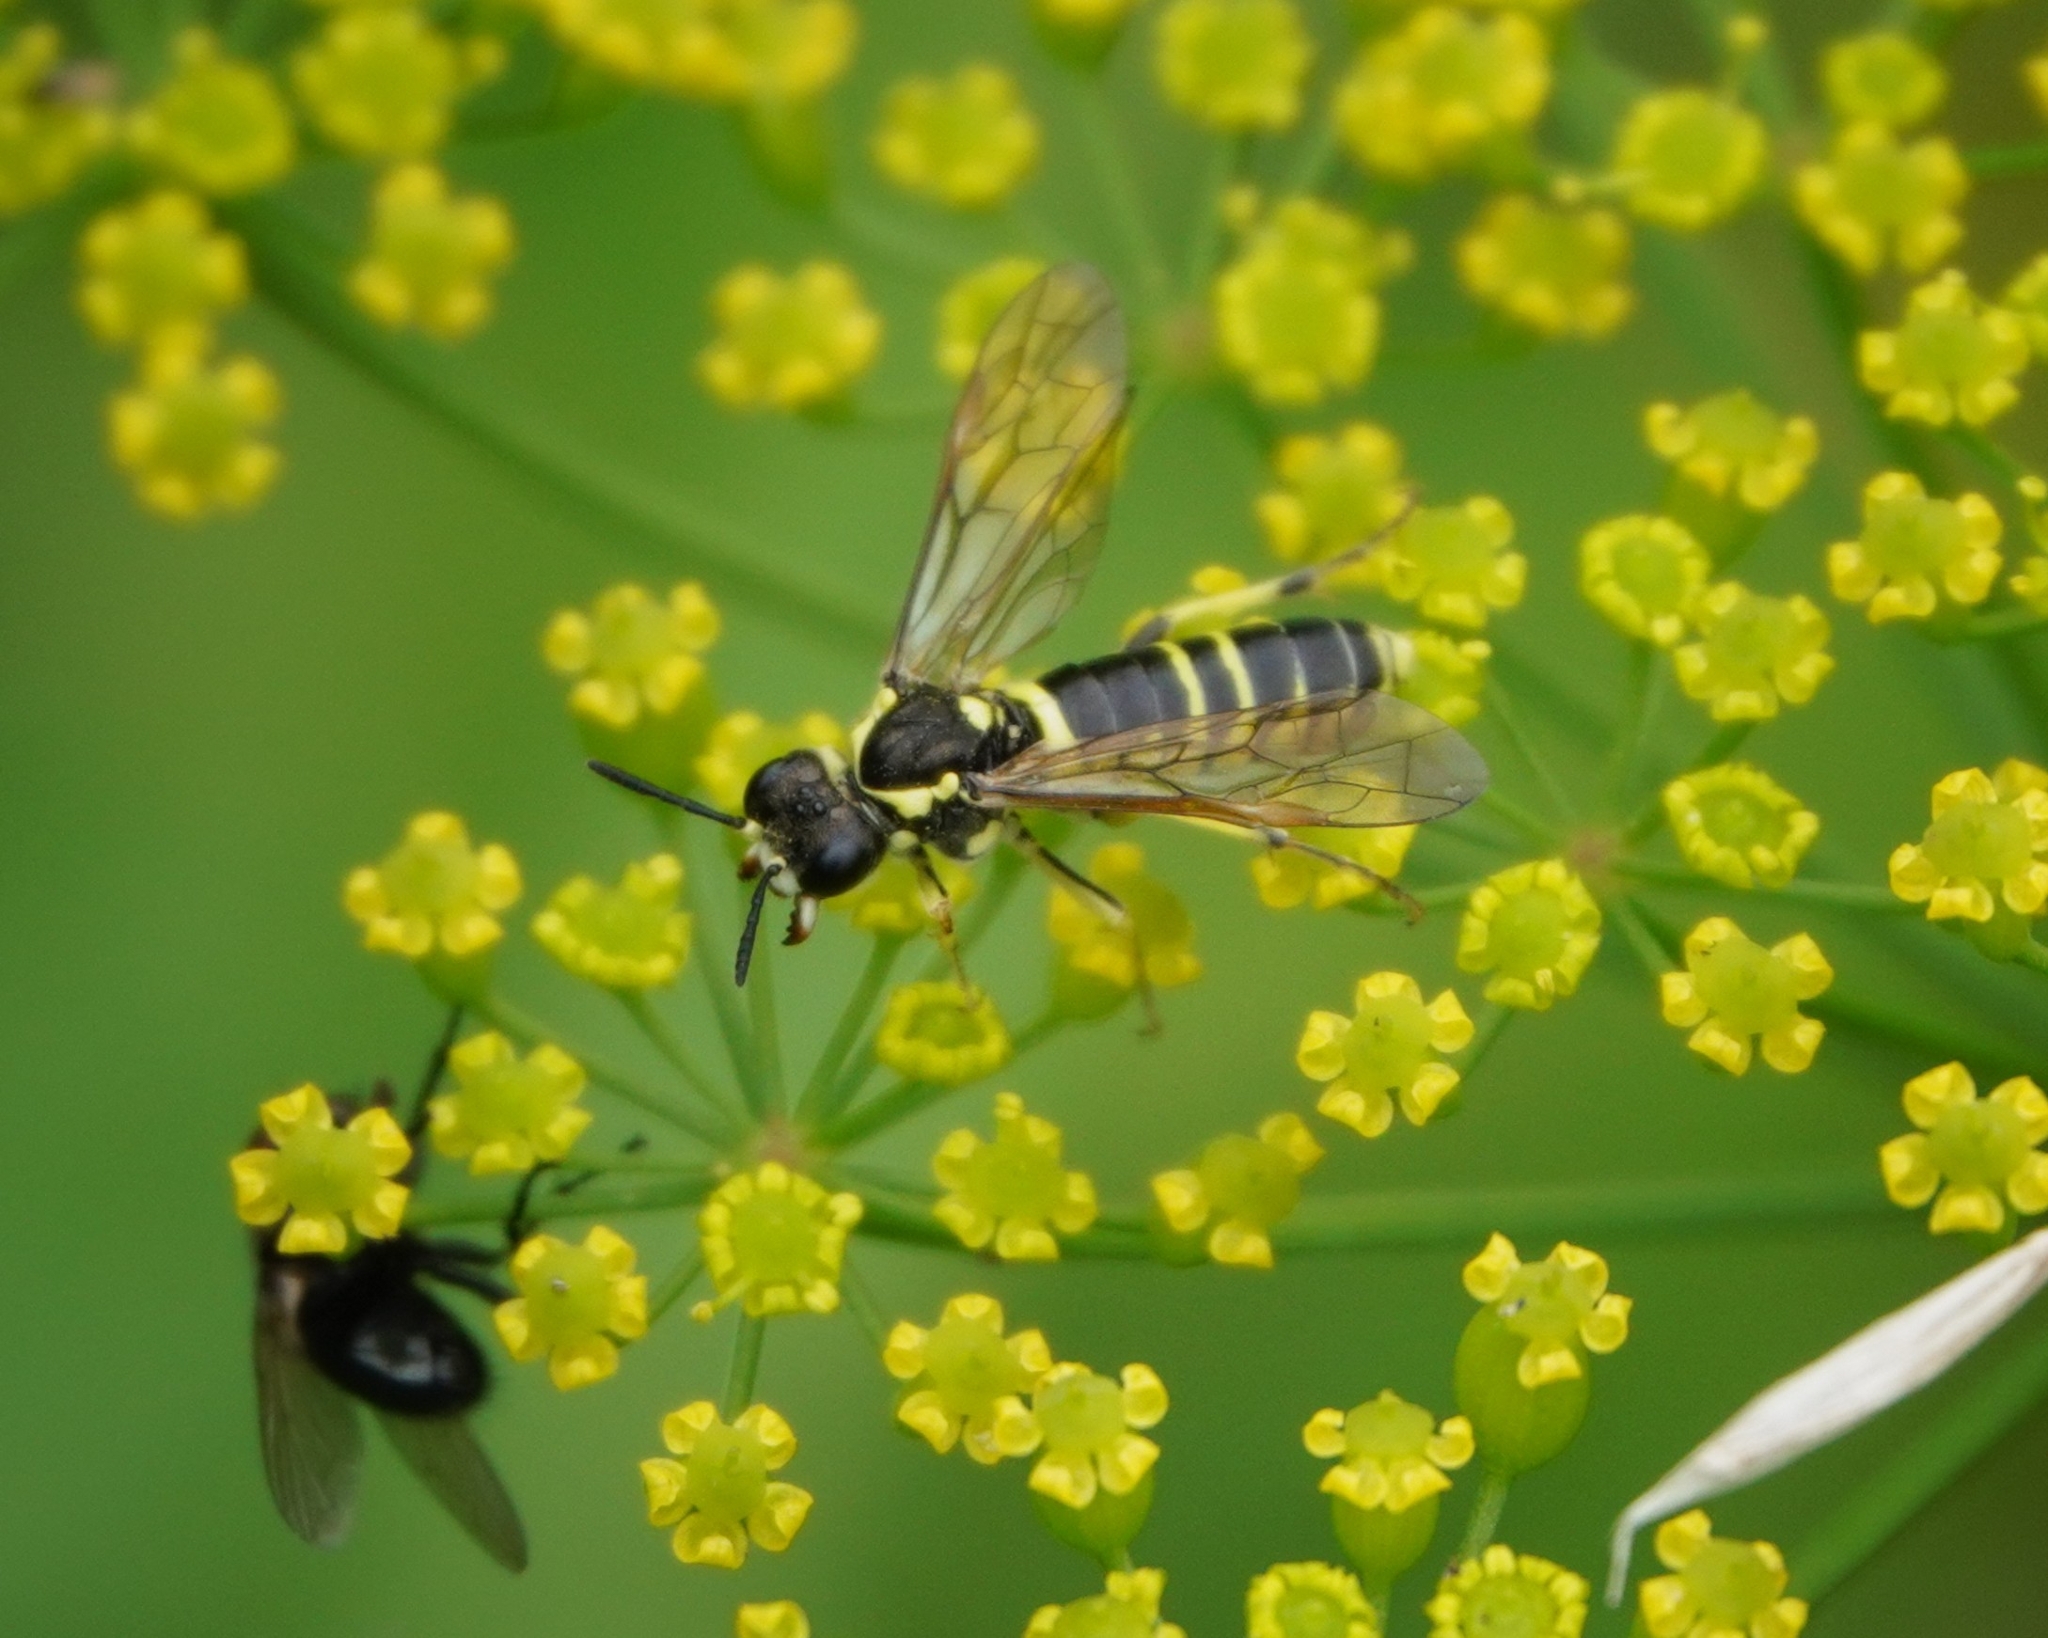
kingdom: Animalia
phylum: Arthropoda
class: Insecta
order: Hymenoptera
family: Tenthredinidae
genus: Tenthredo
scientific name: Tenthredo notha
